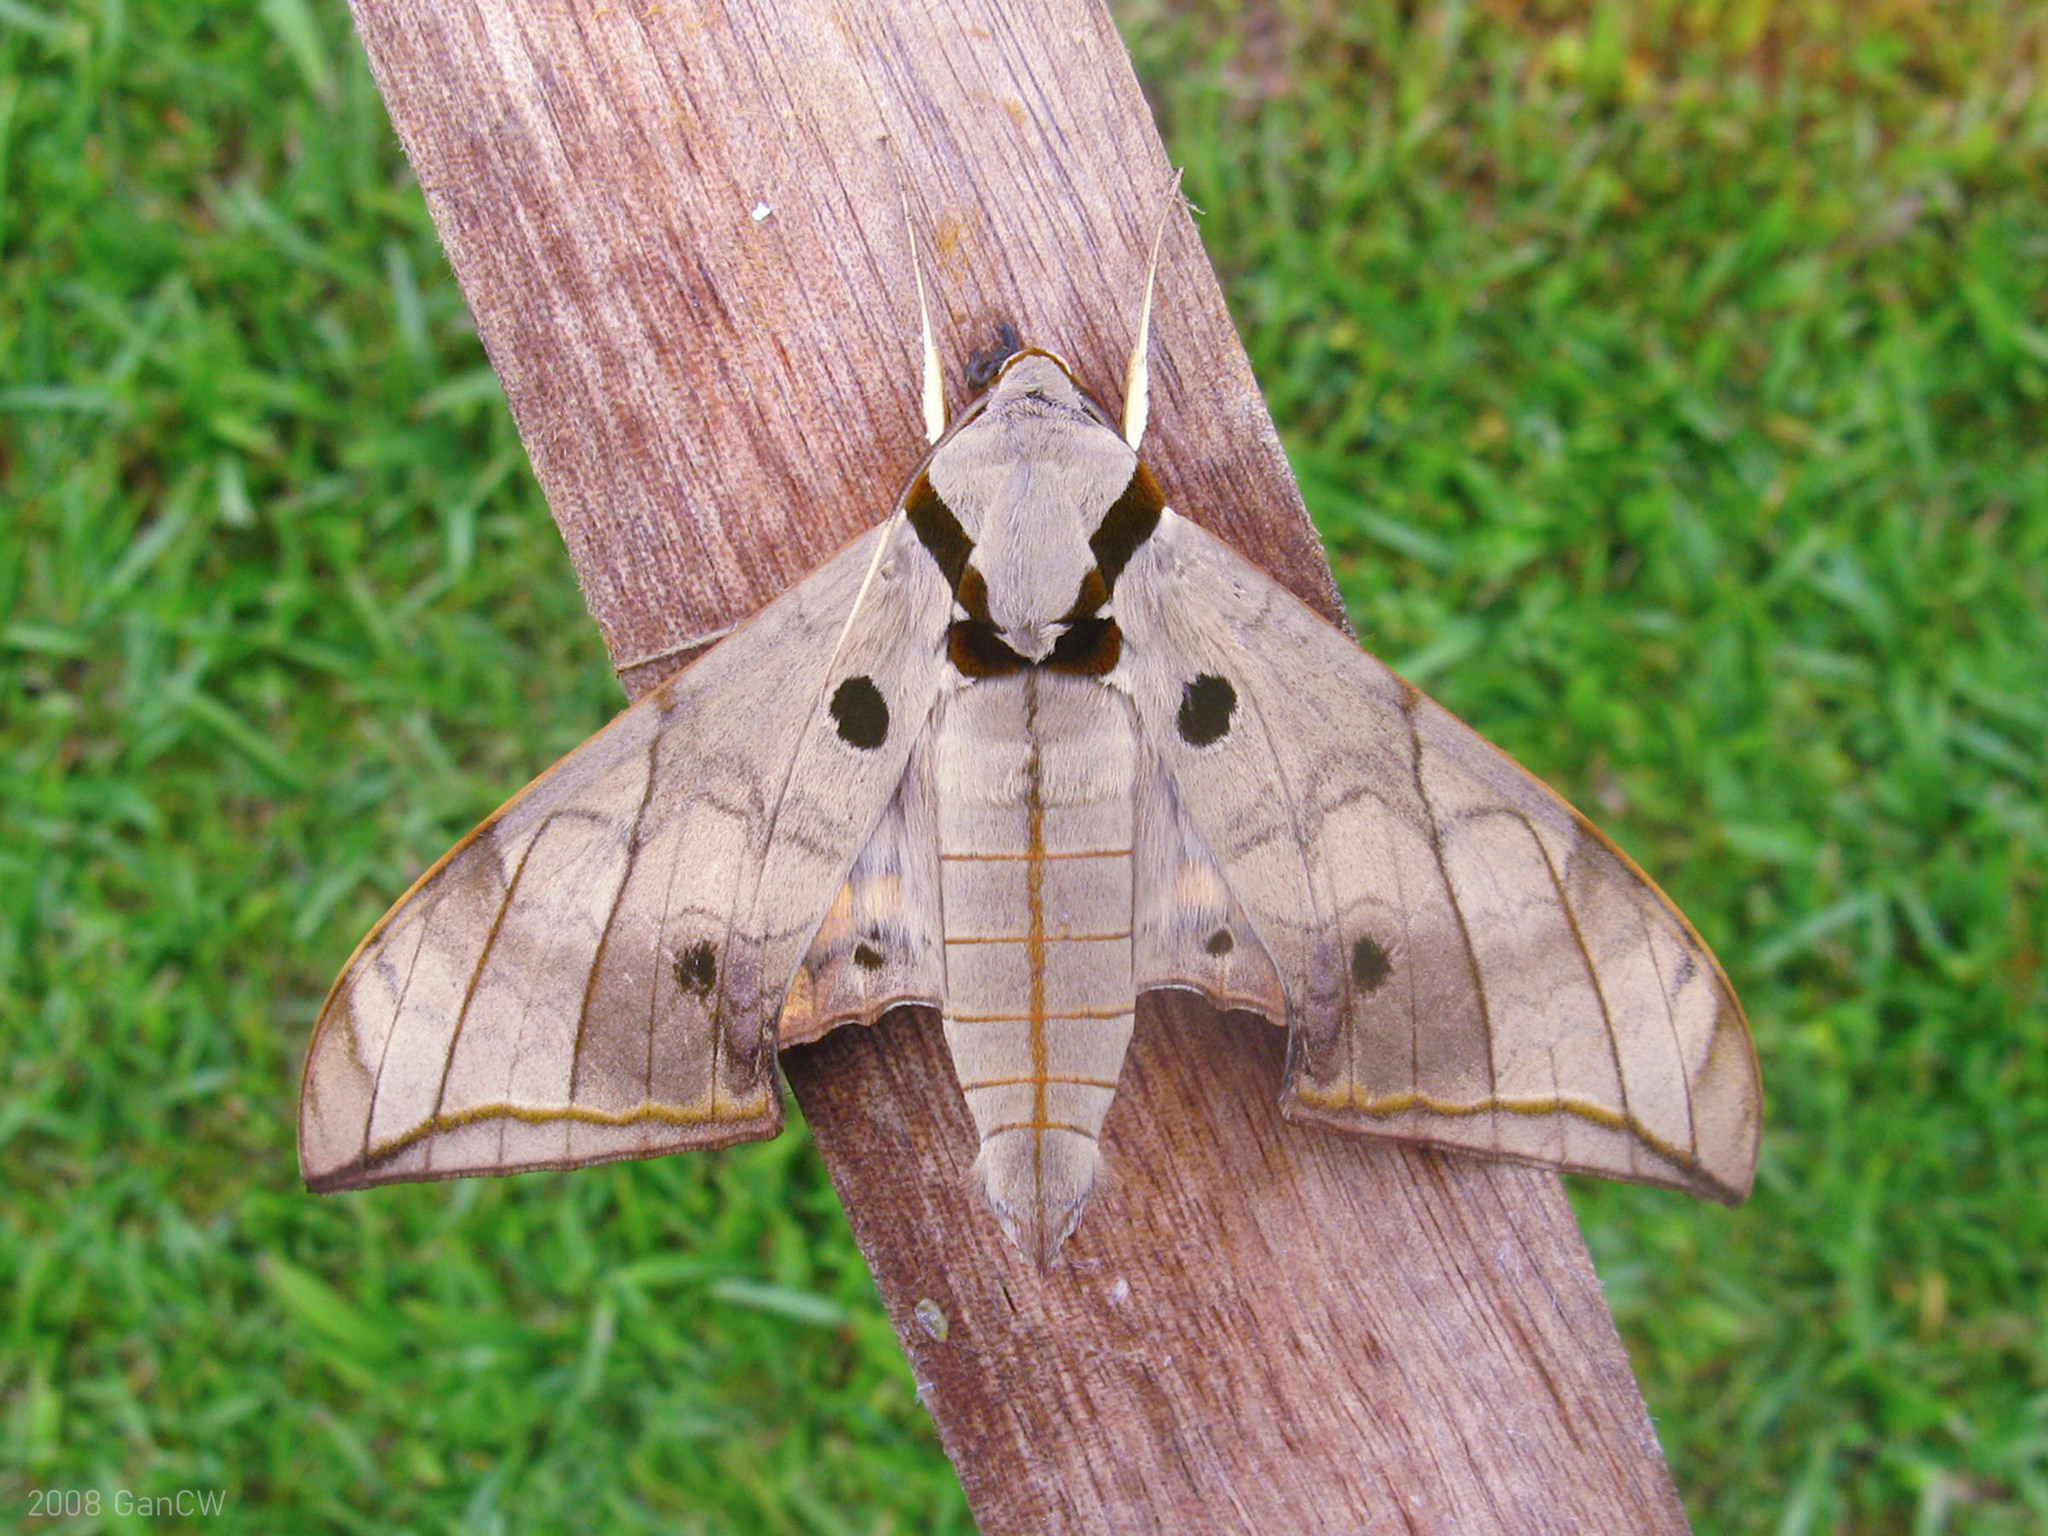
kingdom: Animalia
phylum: Arthropoda
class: Insecta
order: Lepidoptera
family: Sphingidae
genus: Ambulyx
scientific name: Ambulyx substrigilis
